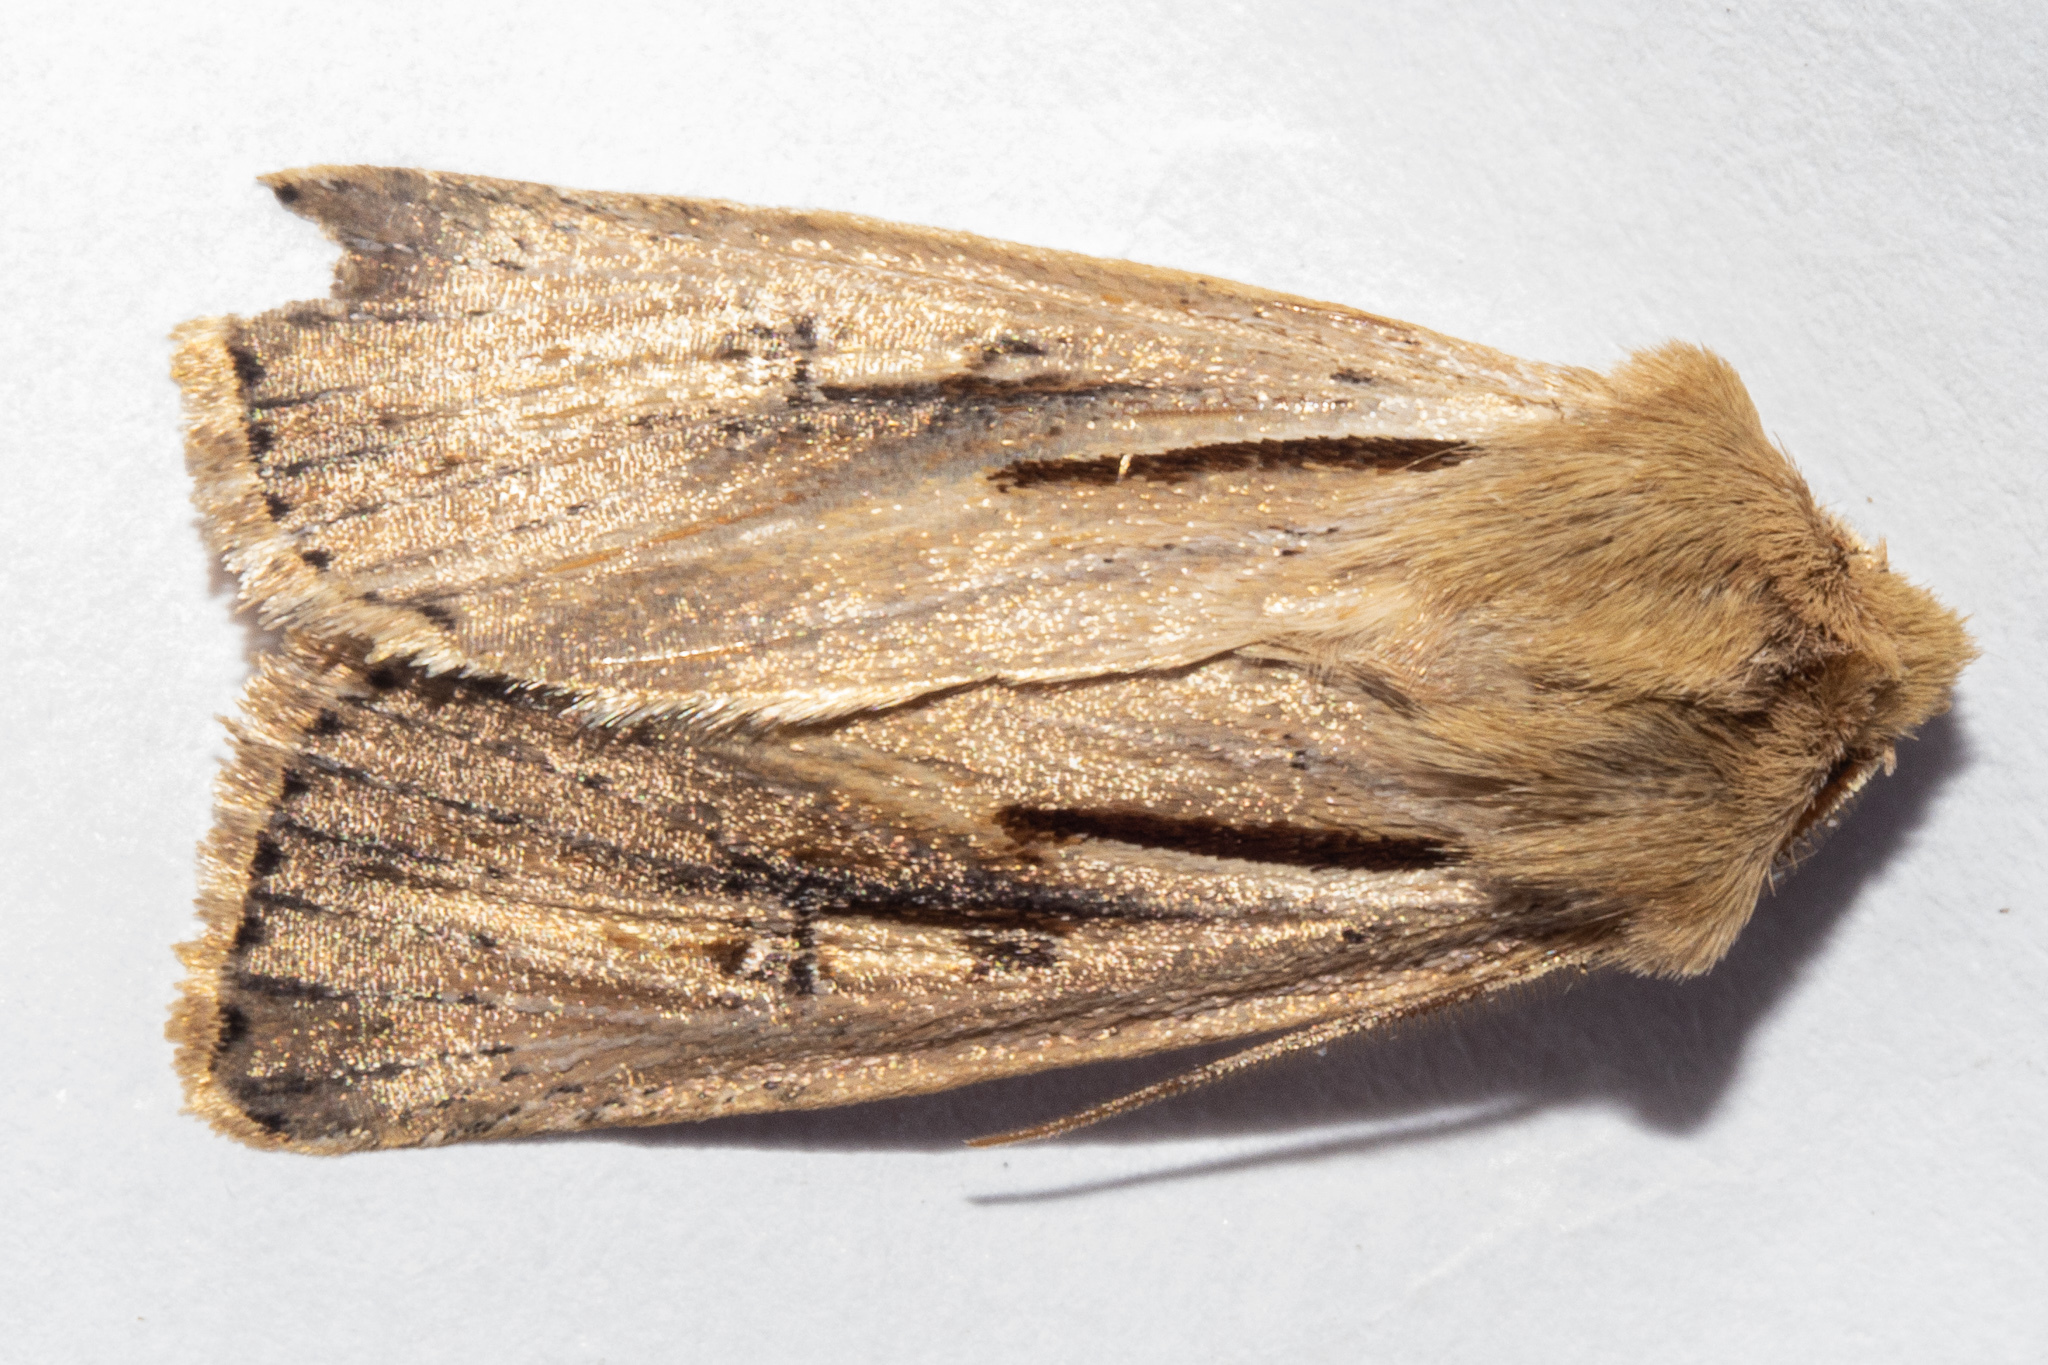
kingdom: Animalia
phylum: Arthropoda
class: Insecta
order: Lepidoptera
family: Noctuidae
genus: Ichneutica
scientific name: Ichneutica propria
